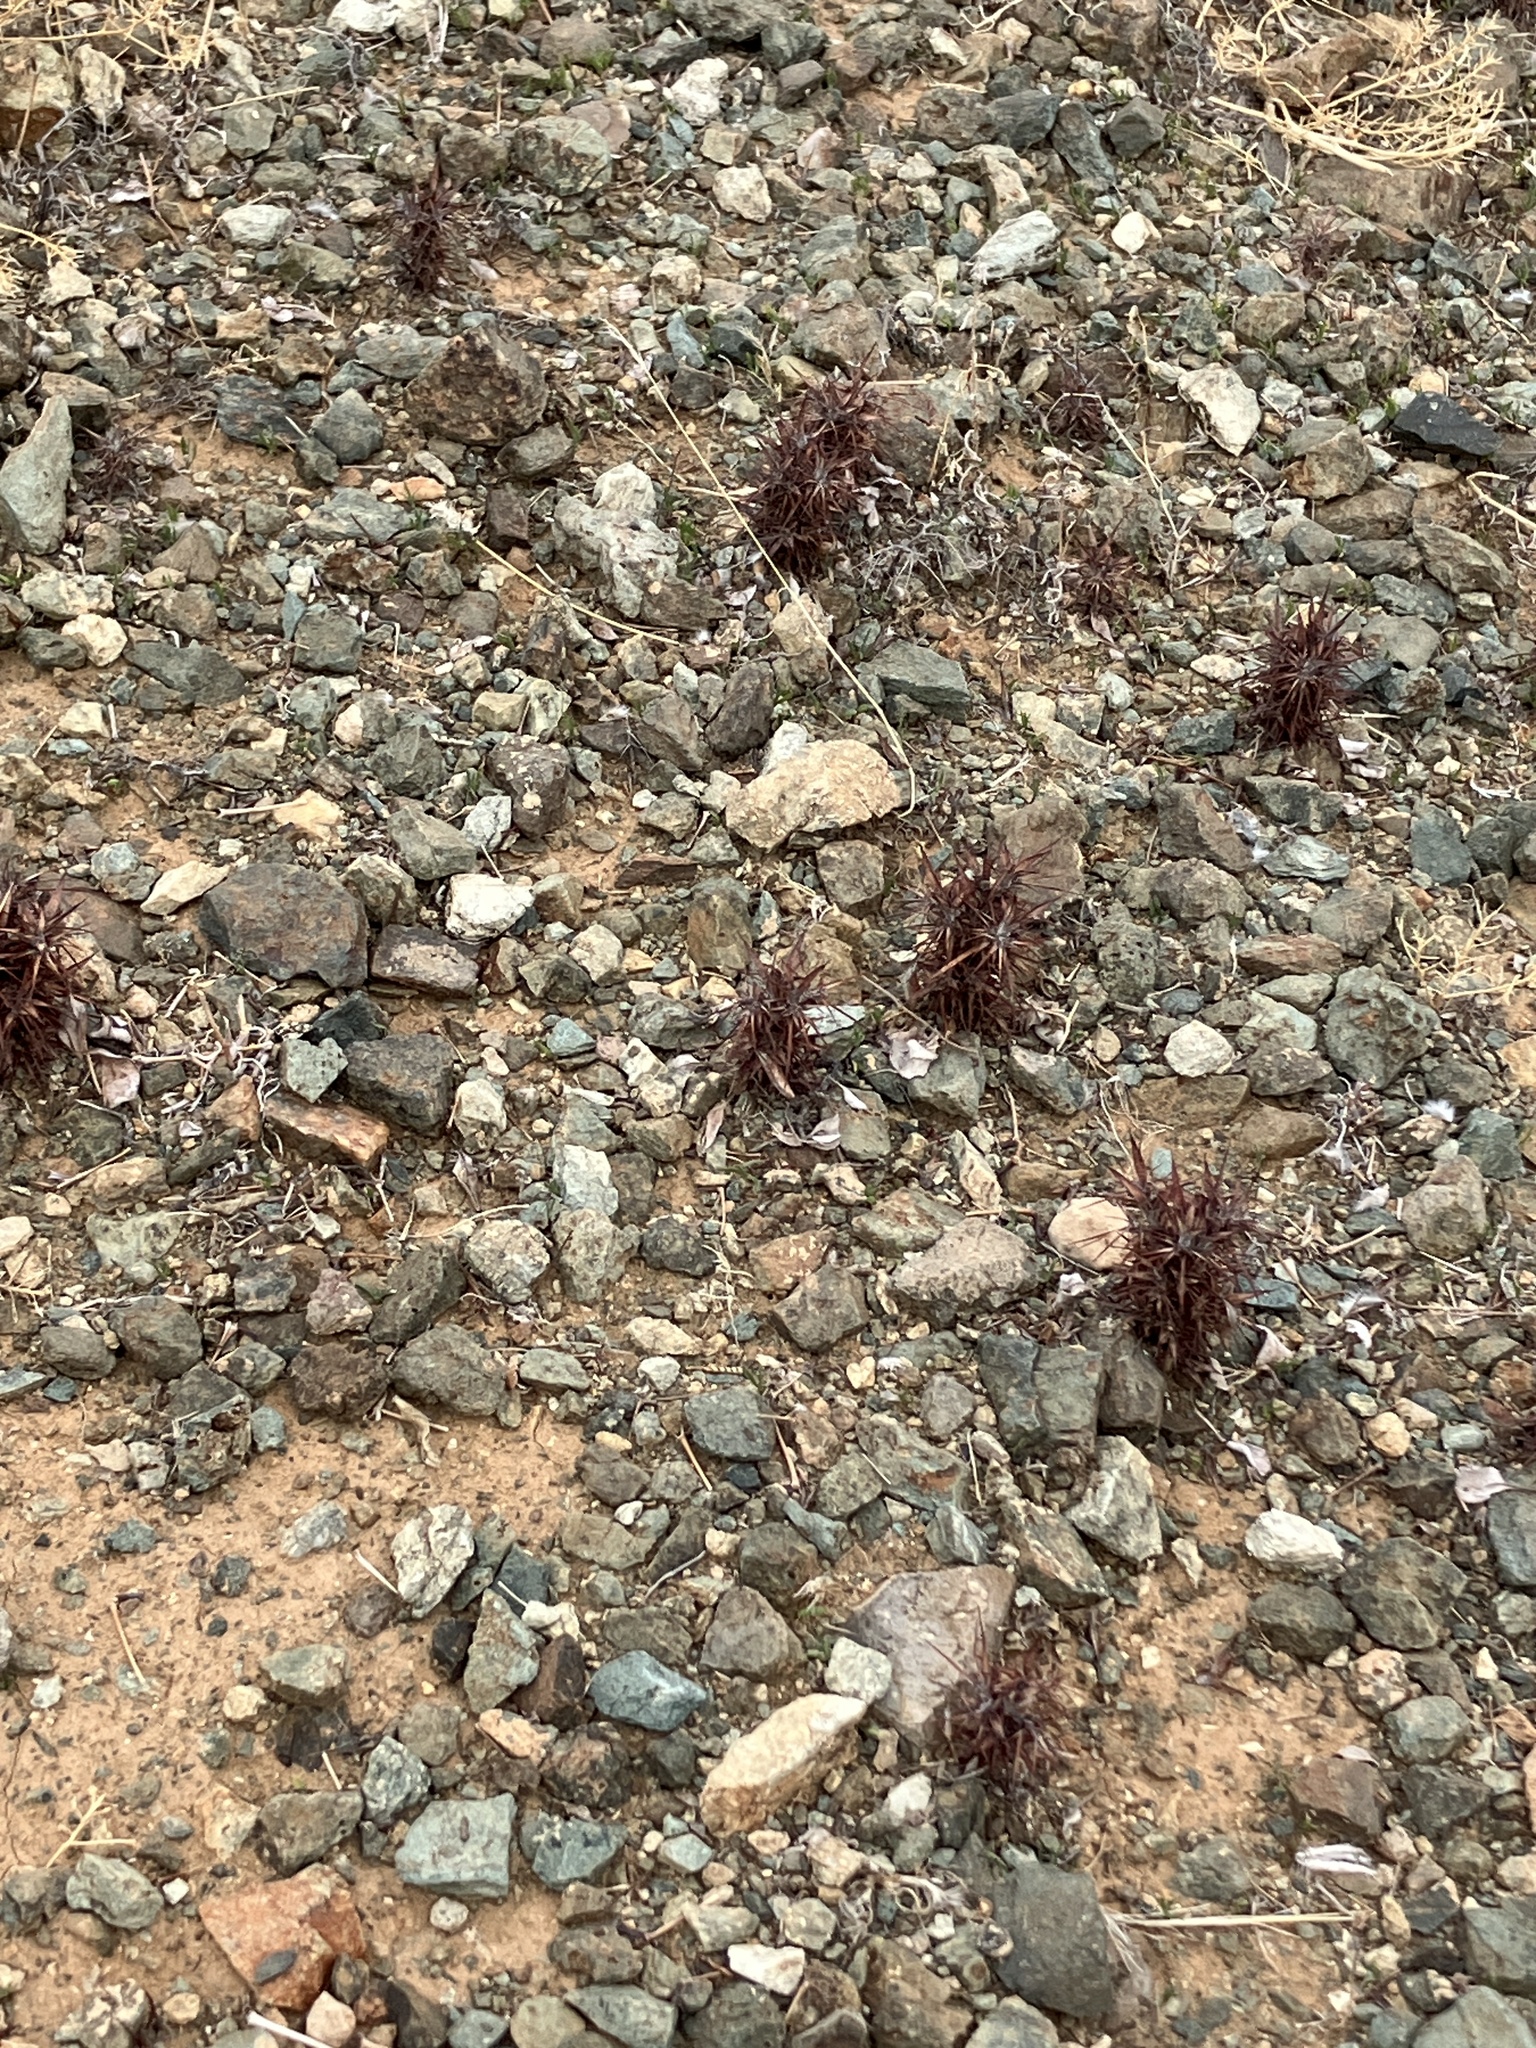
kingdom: Plantae
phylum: Tracheophyta
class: Magnoliopsida
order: Caryophyllales
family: Polygonaceae
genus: Chorizanthe
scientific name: Chorizanthe rigida
